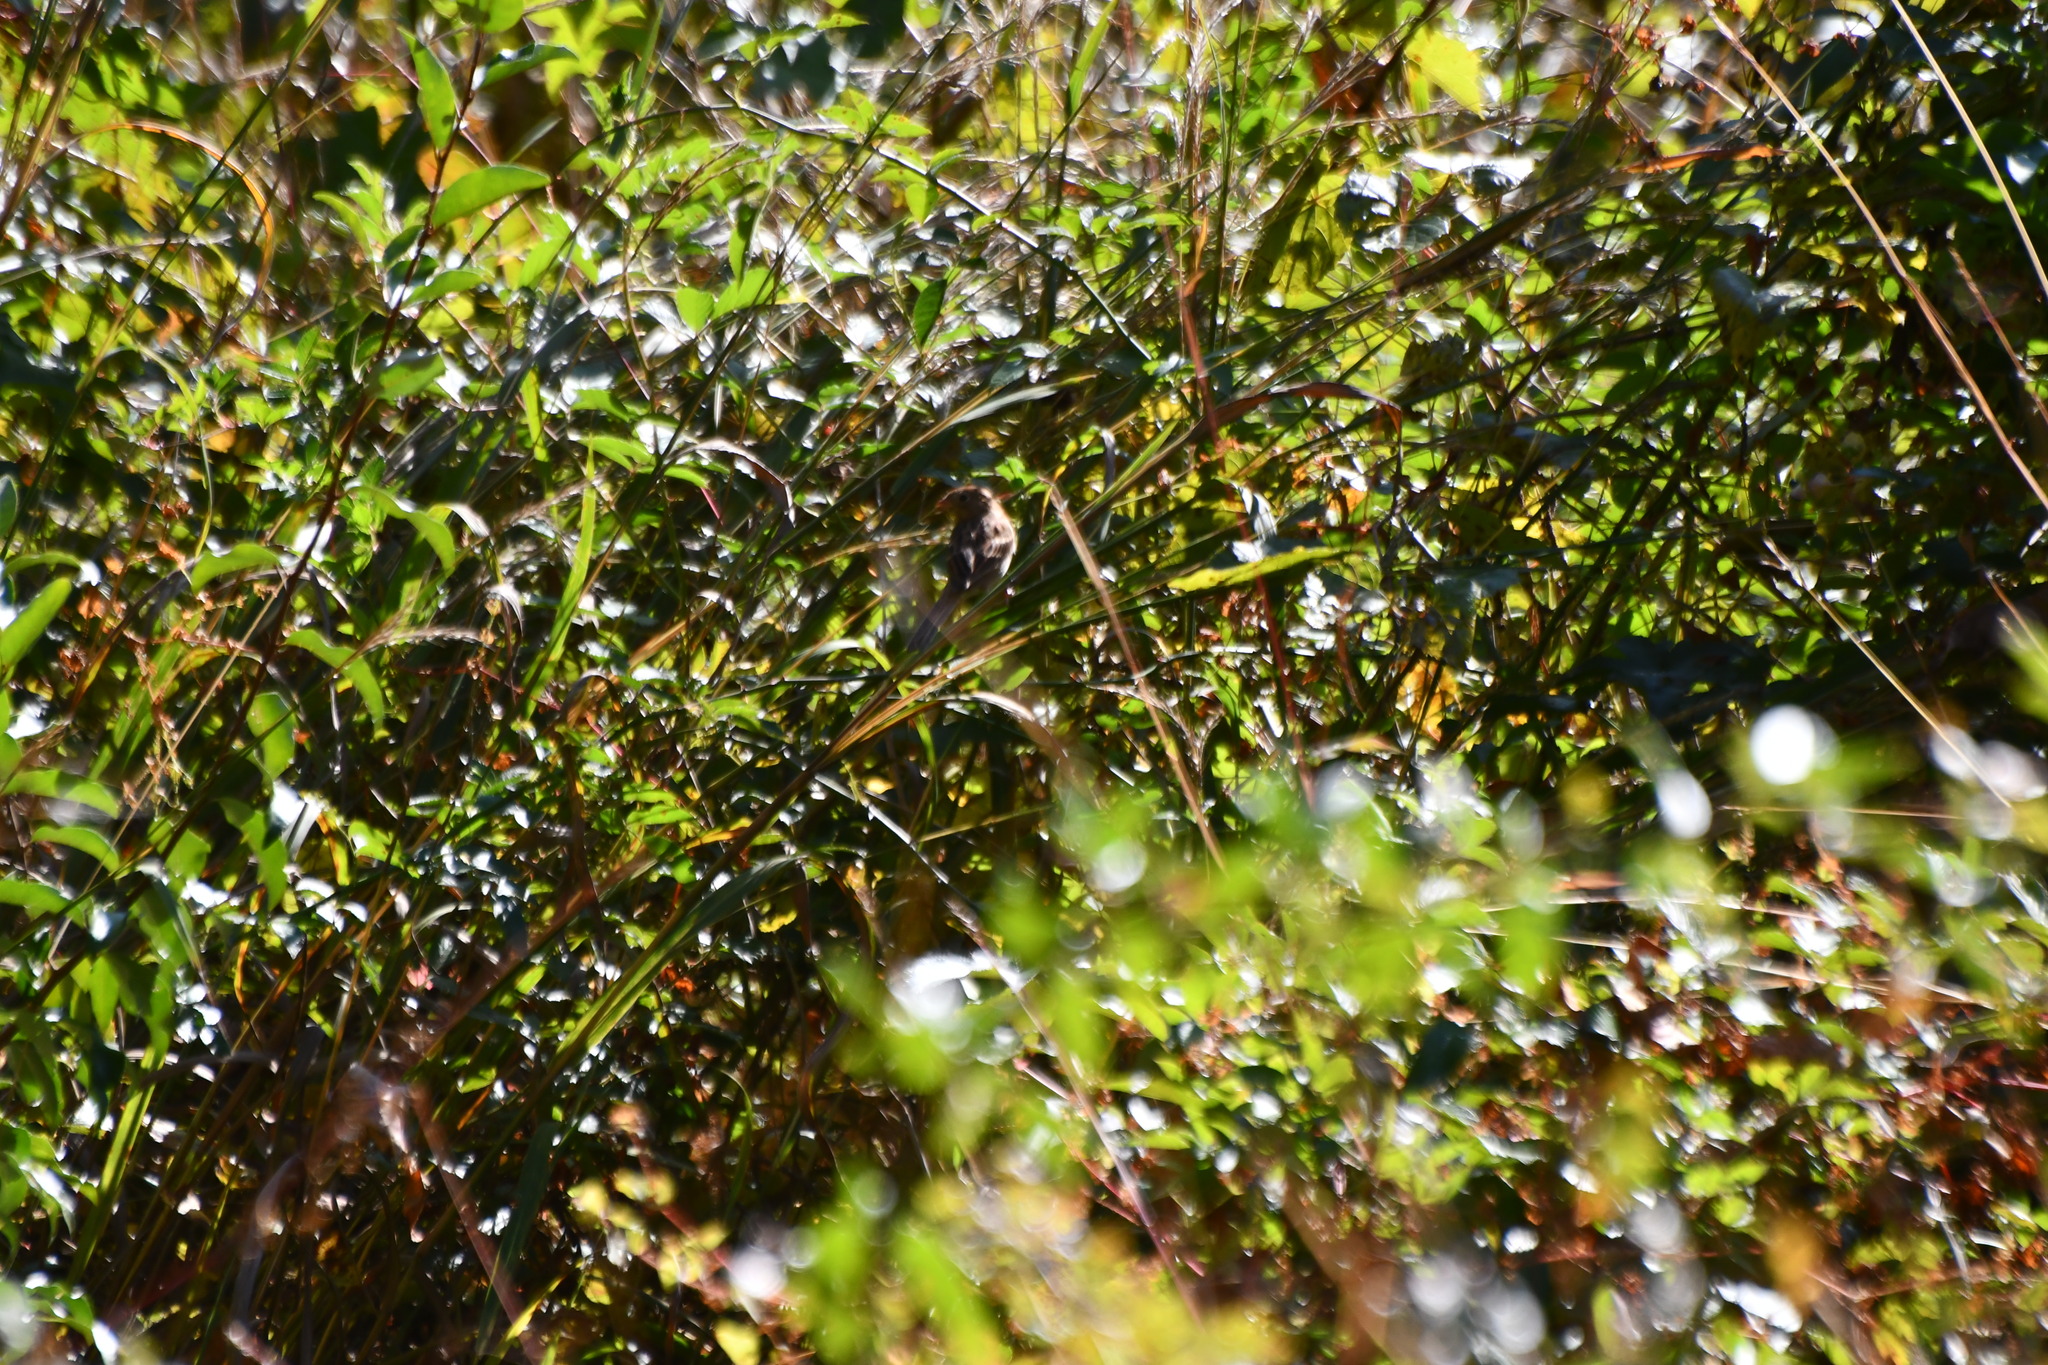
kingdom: Animalia
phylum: Chordata
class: Aves
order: Passeriformes
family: Passerellidae
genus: Spizella
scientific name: Spizella pusilla
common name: Field sparrow
